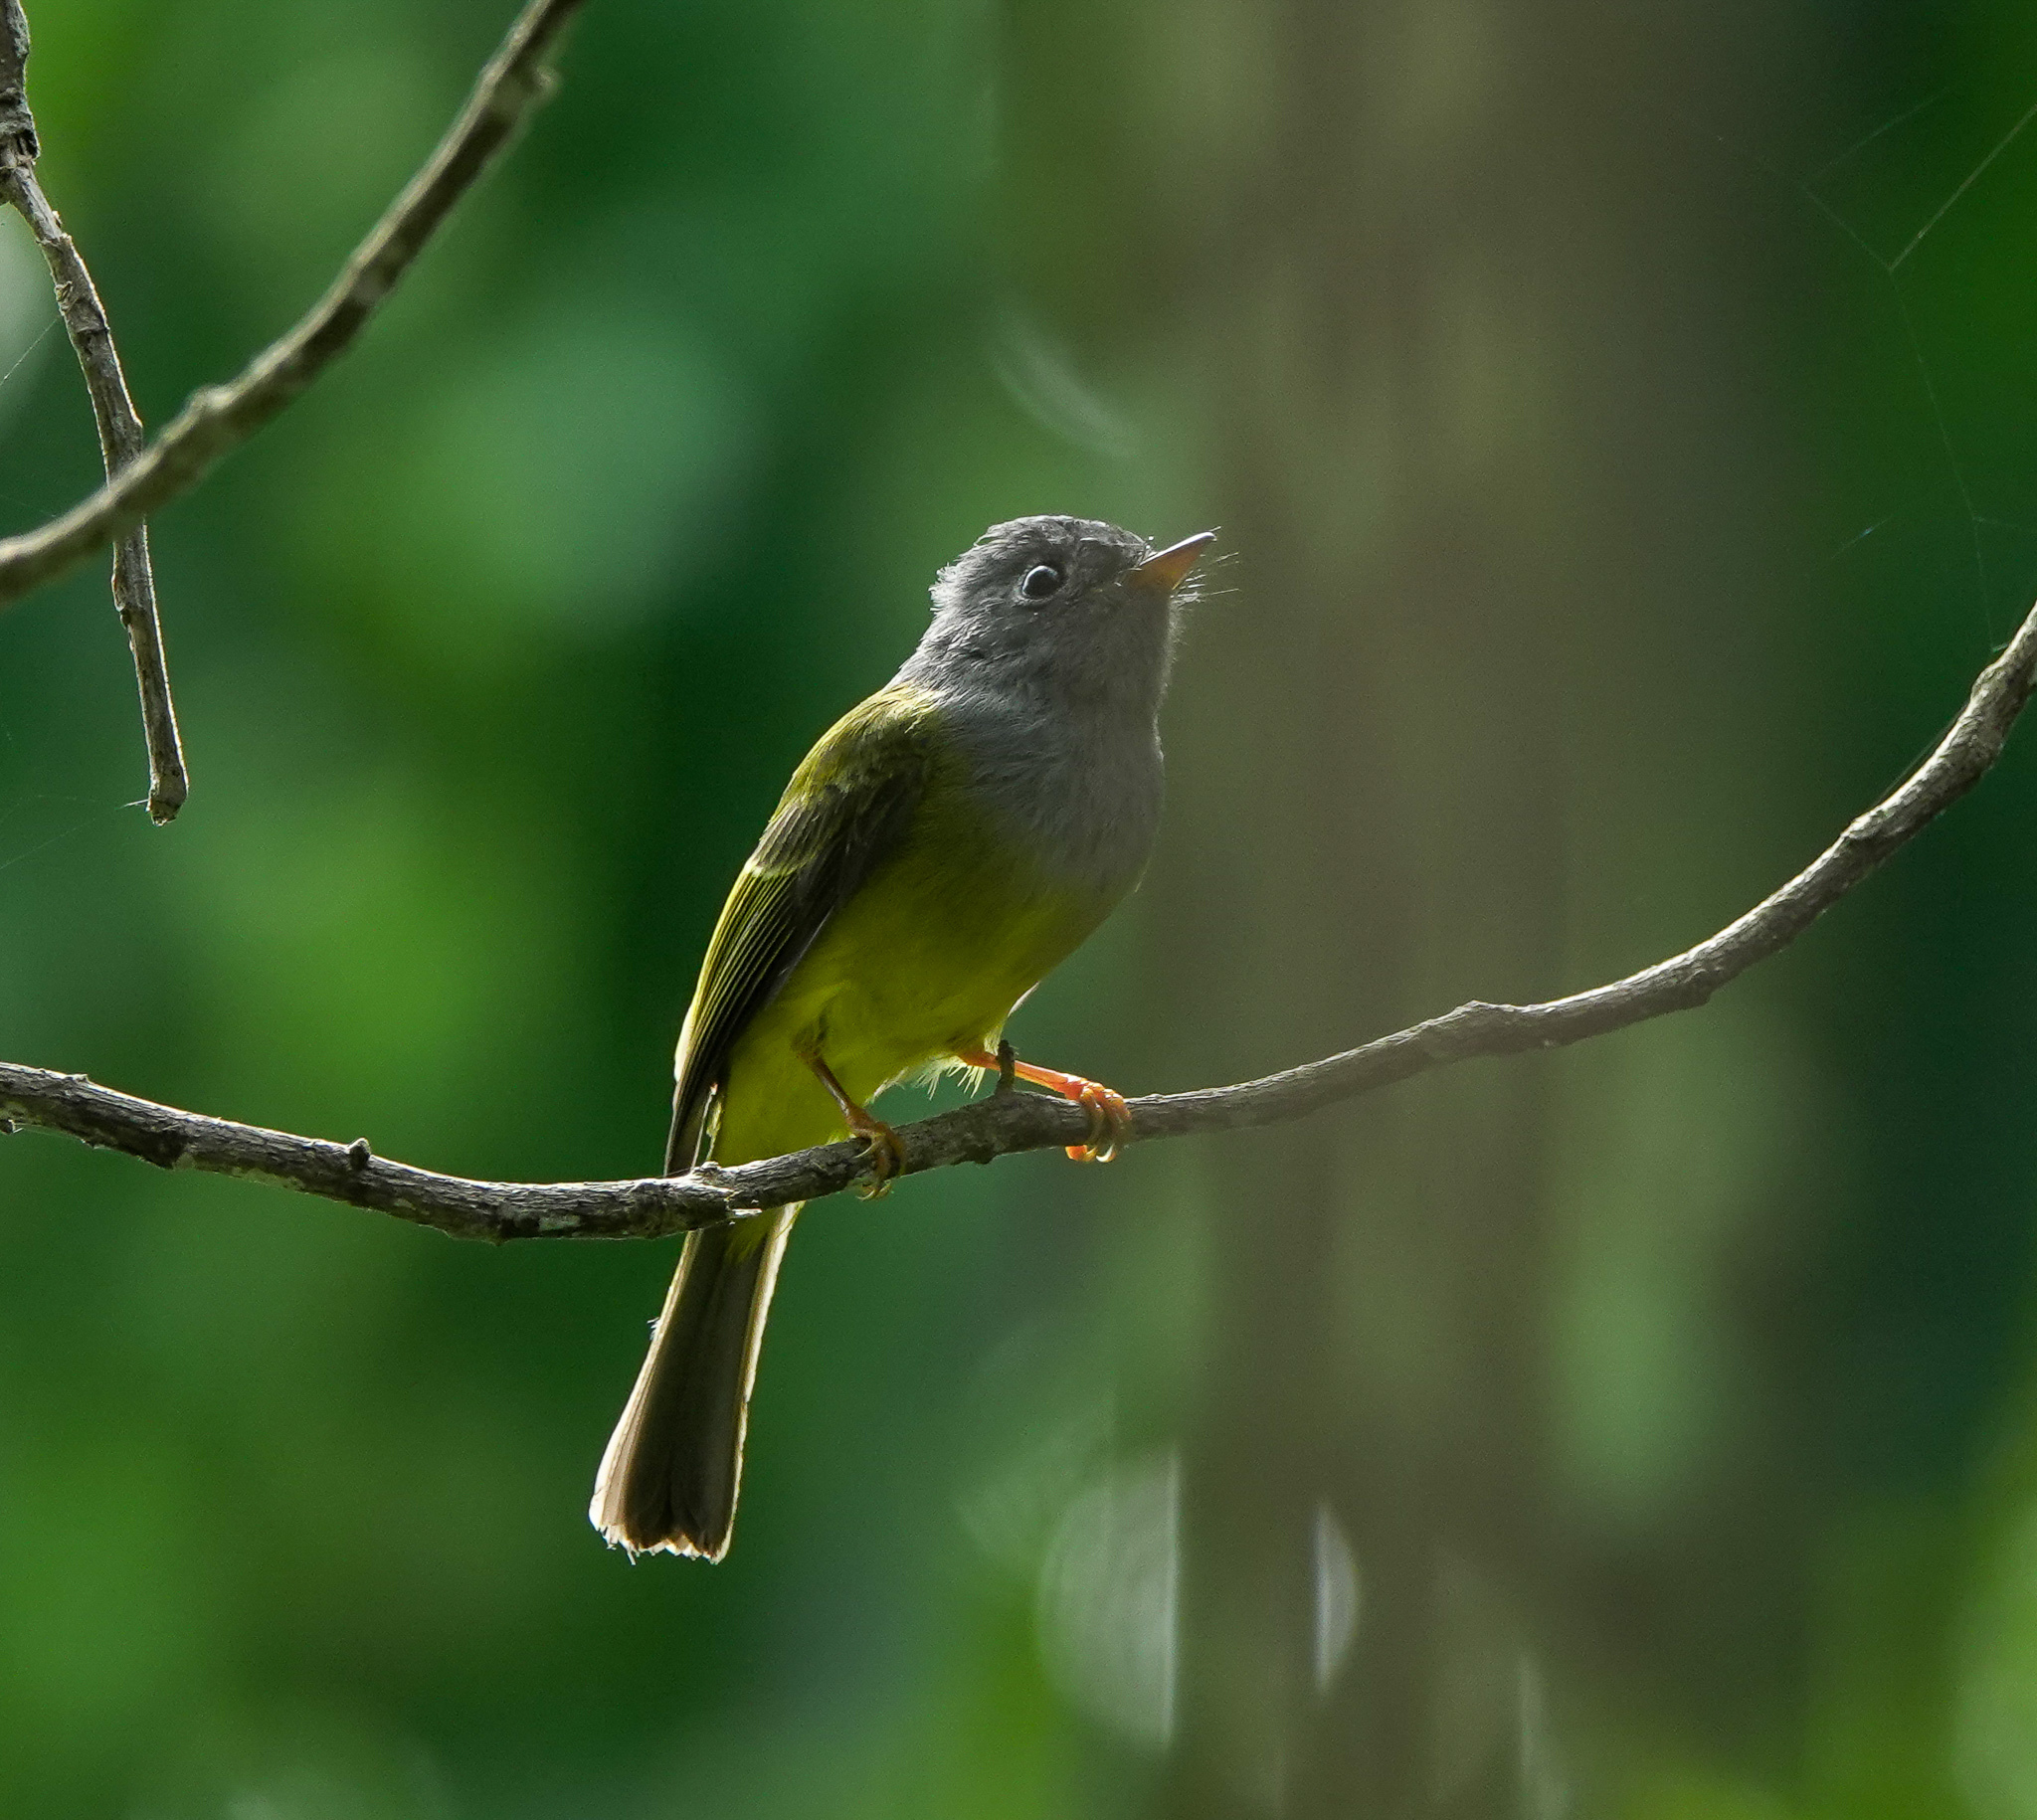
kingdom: Animalia
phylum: Chordata
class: Aves
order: Passeriformes
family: Stenostiridae
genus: Culicicapa
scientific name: Culicicapa ceylonensis
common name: Grey-headed canary-flycatcher
